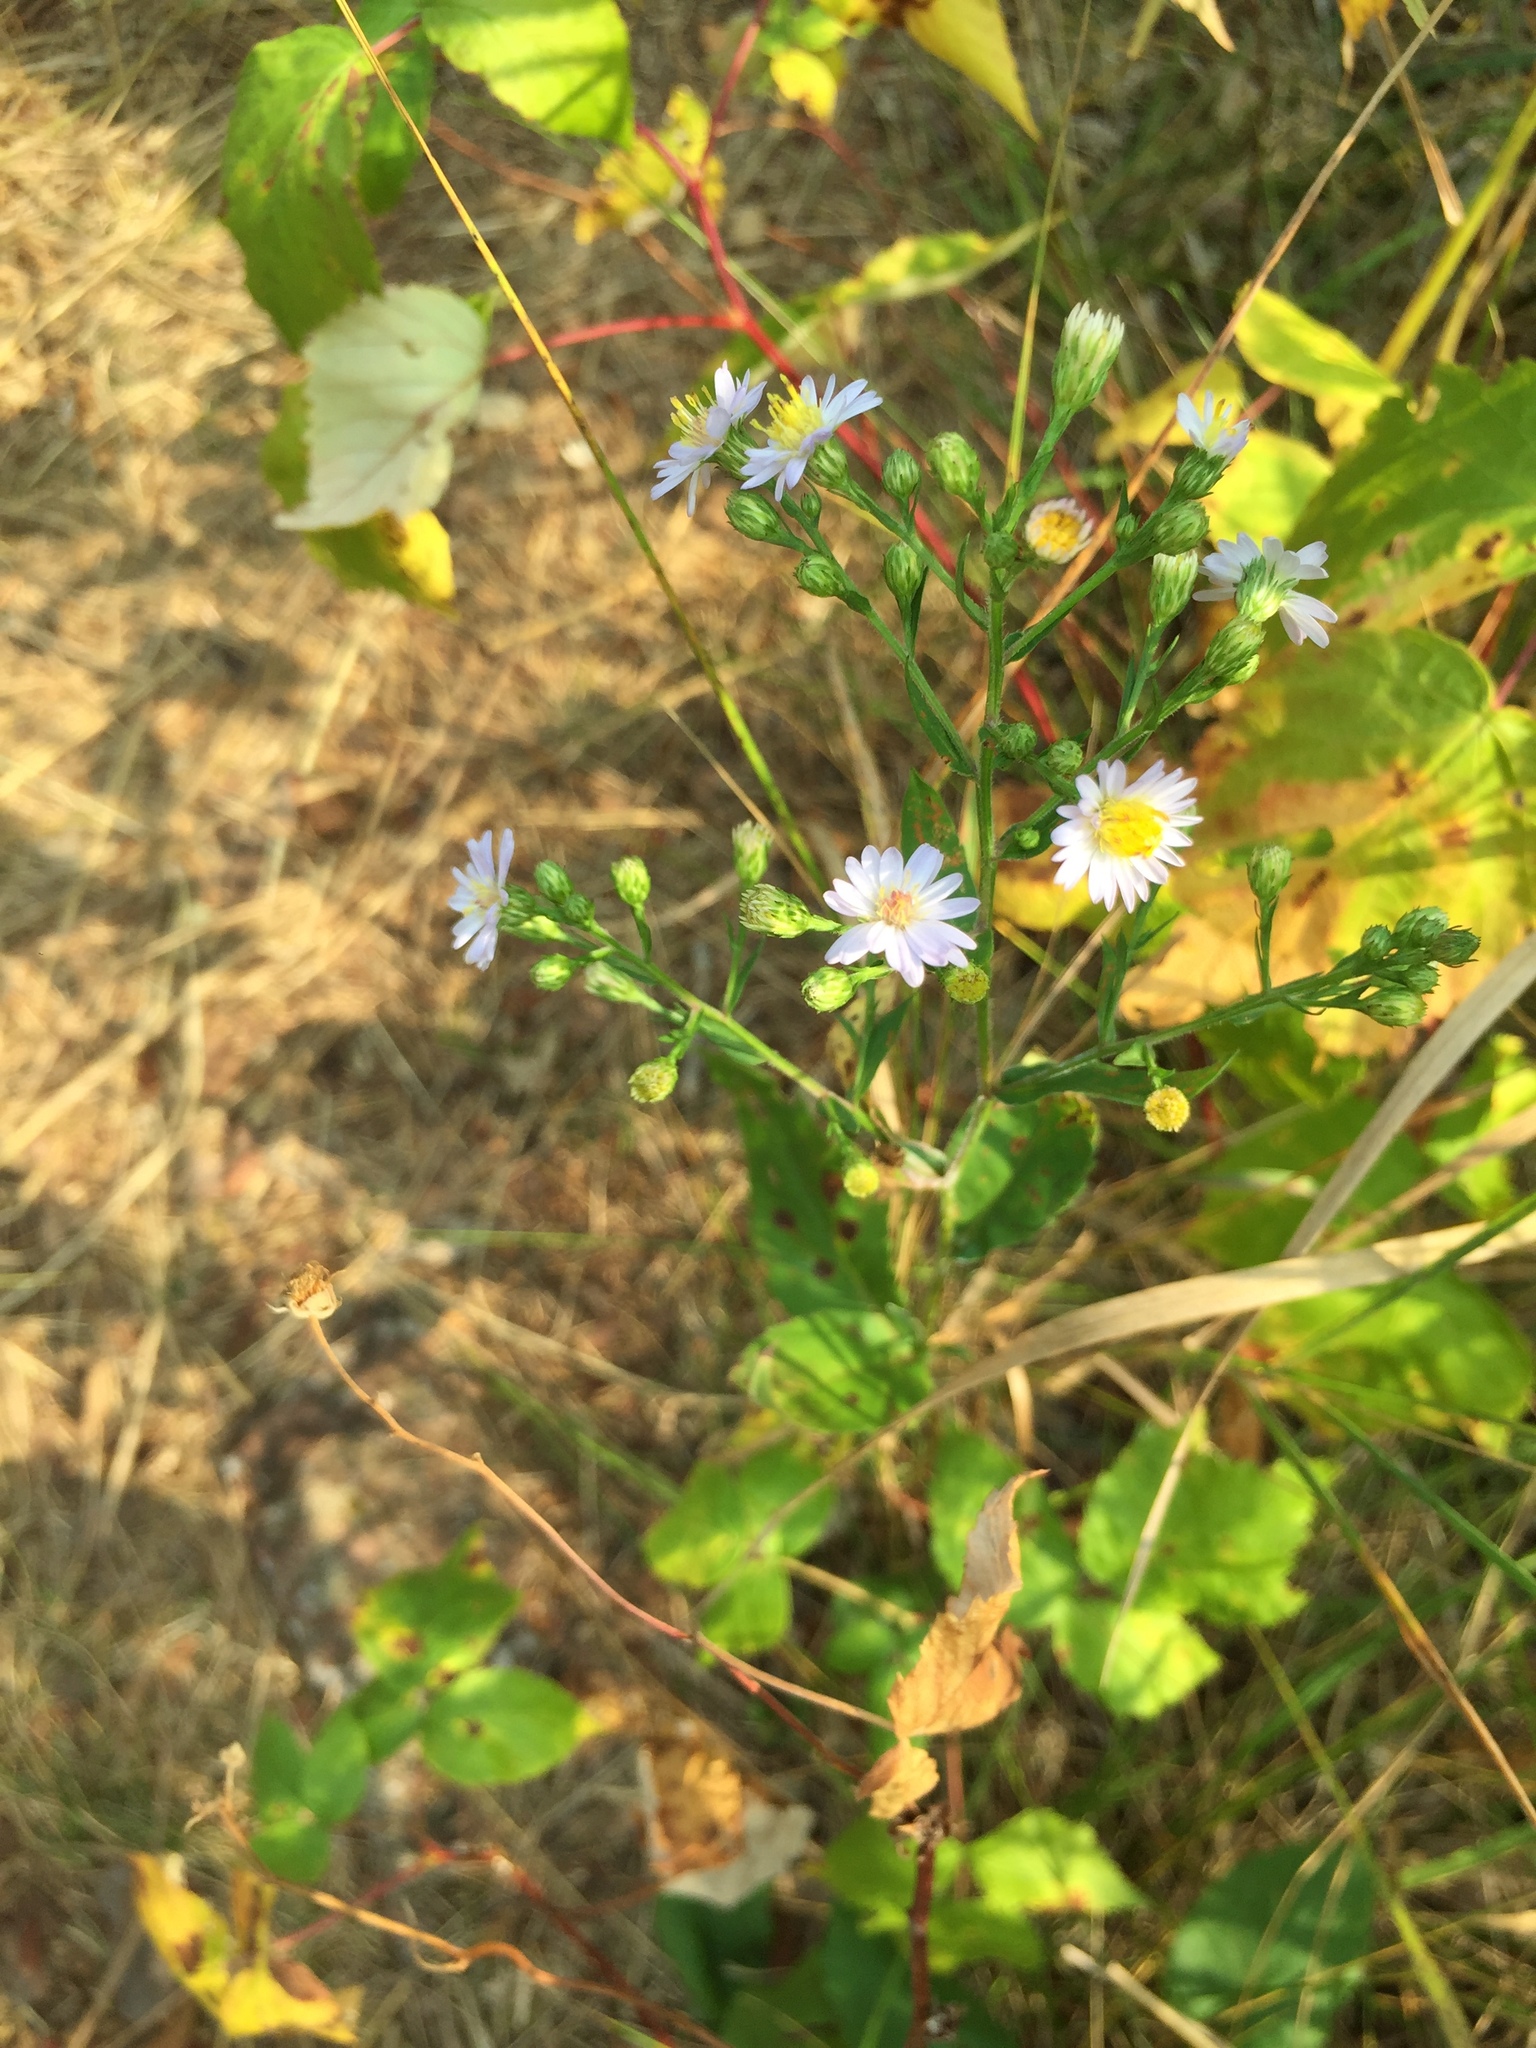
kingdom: Plantae
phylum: Tracheophyta
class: Magnoliopsida
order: Asterales
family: Asteraceae
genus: Symphyotrichum
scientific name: Symphyotrichum laeve
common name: Glaucous aster
